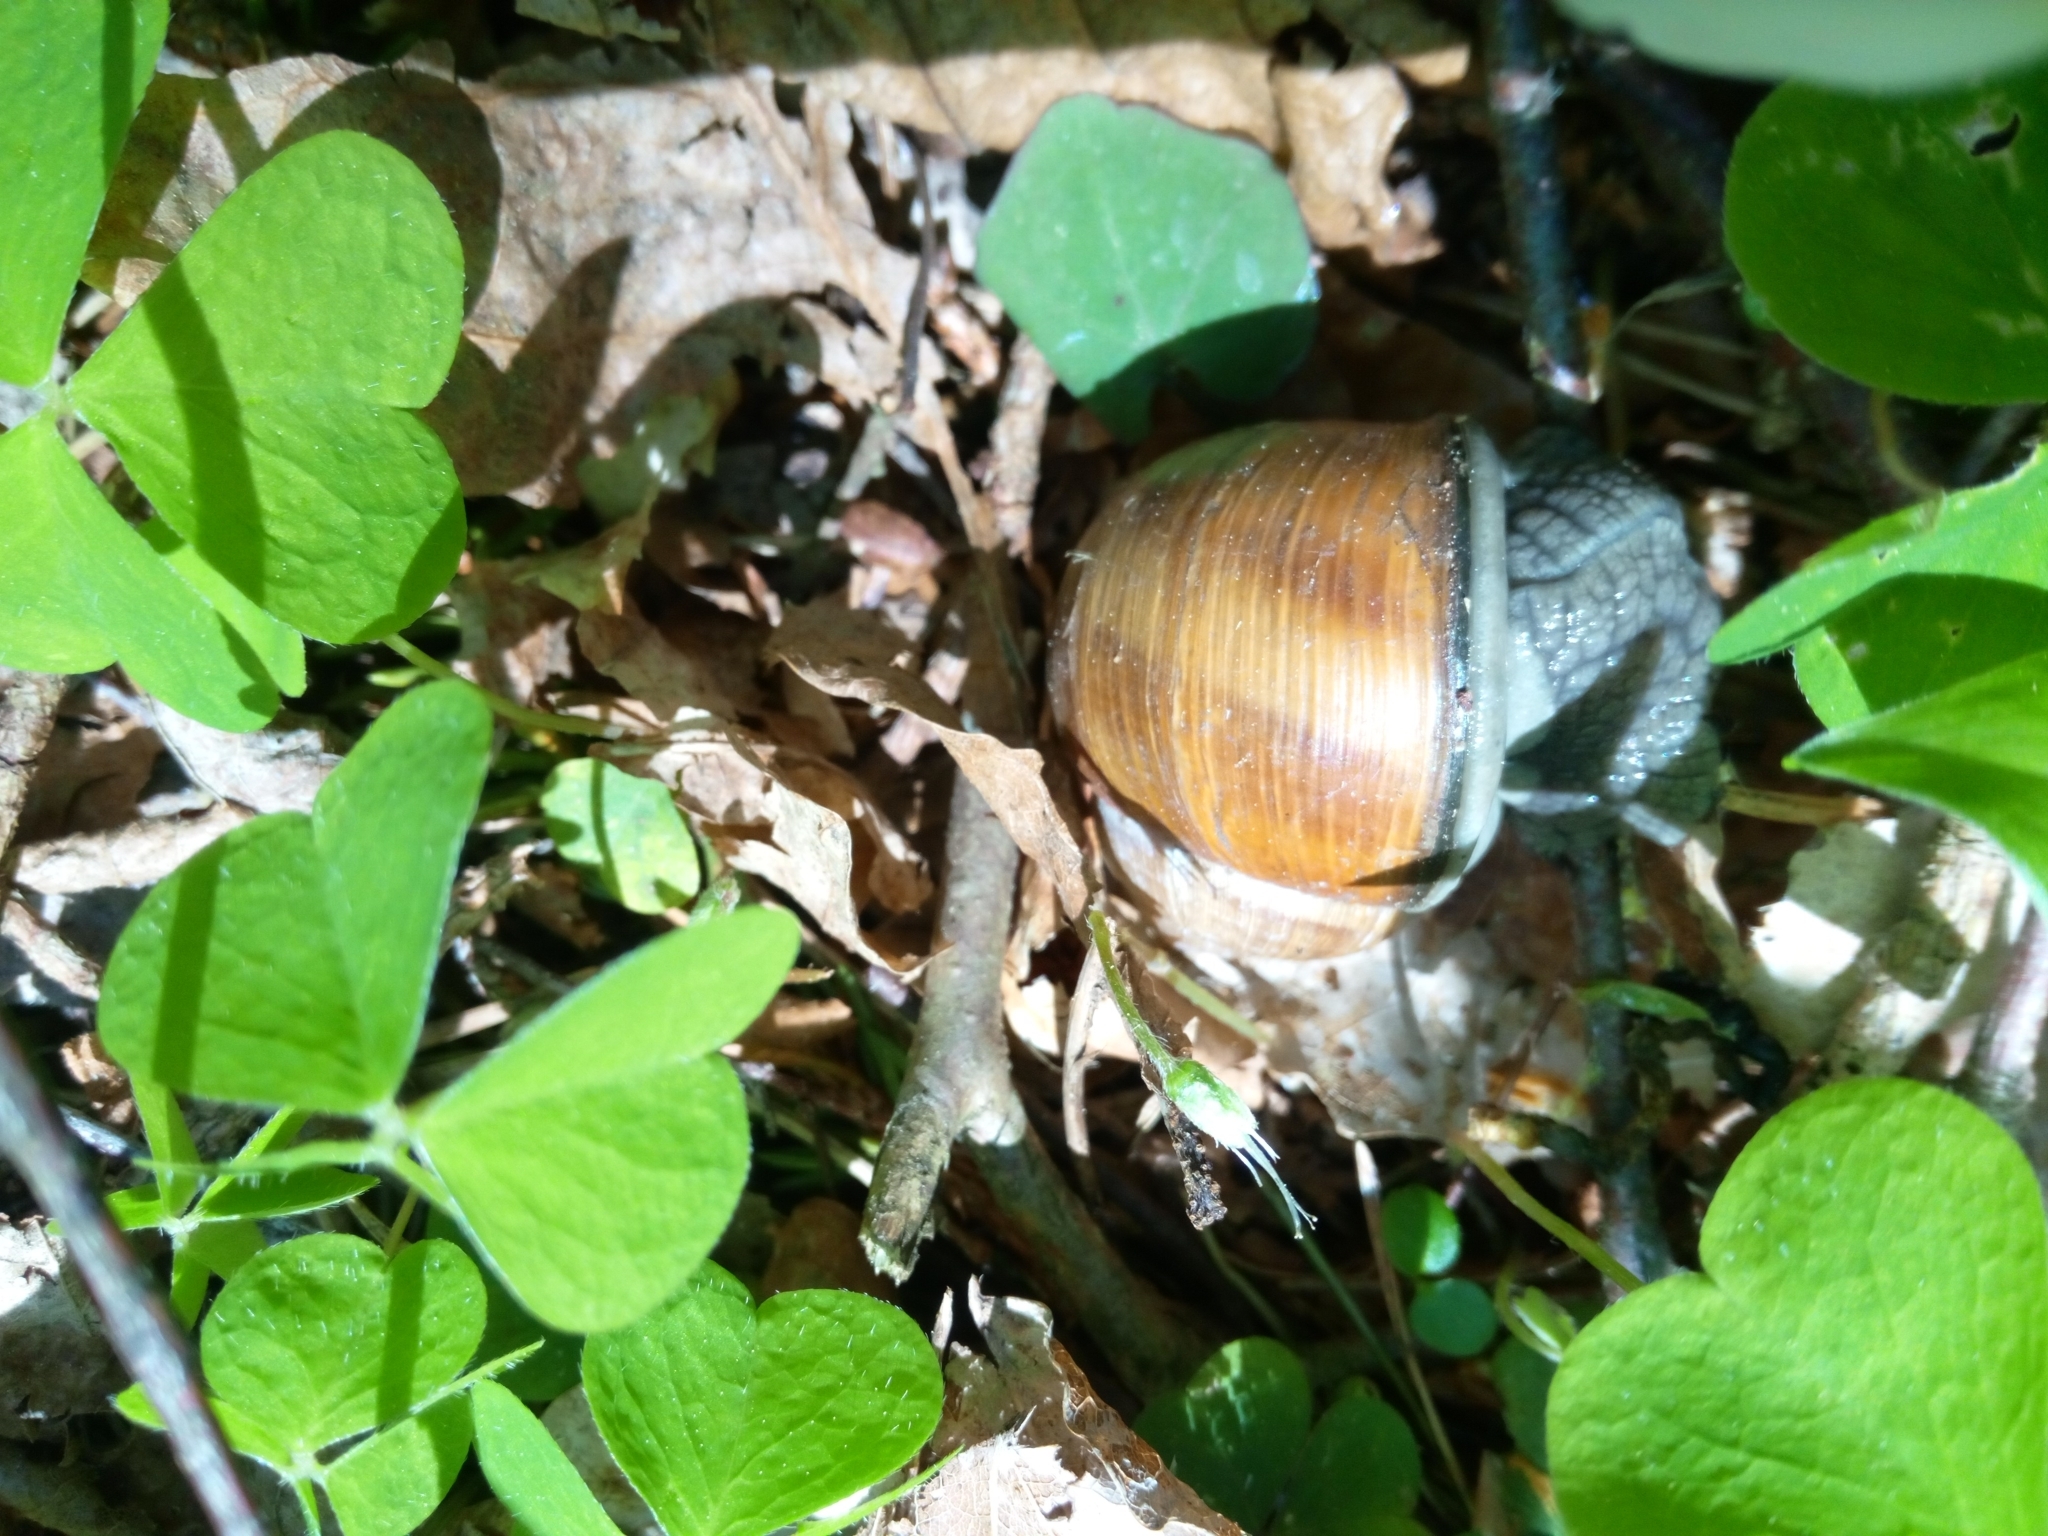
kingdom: Animalia
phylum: Mollusca
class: Gastropoda
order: Stylommatophora
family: Helicidae
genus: Helix
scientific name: Helix pomatia
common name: Roman snail
